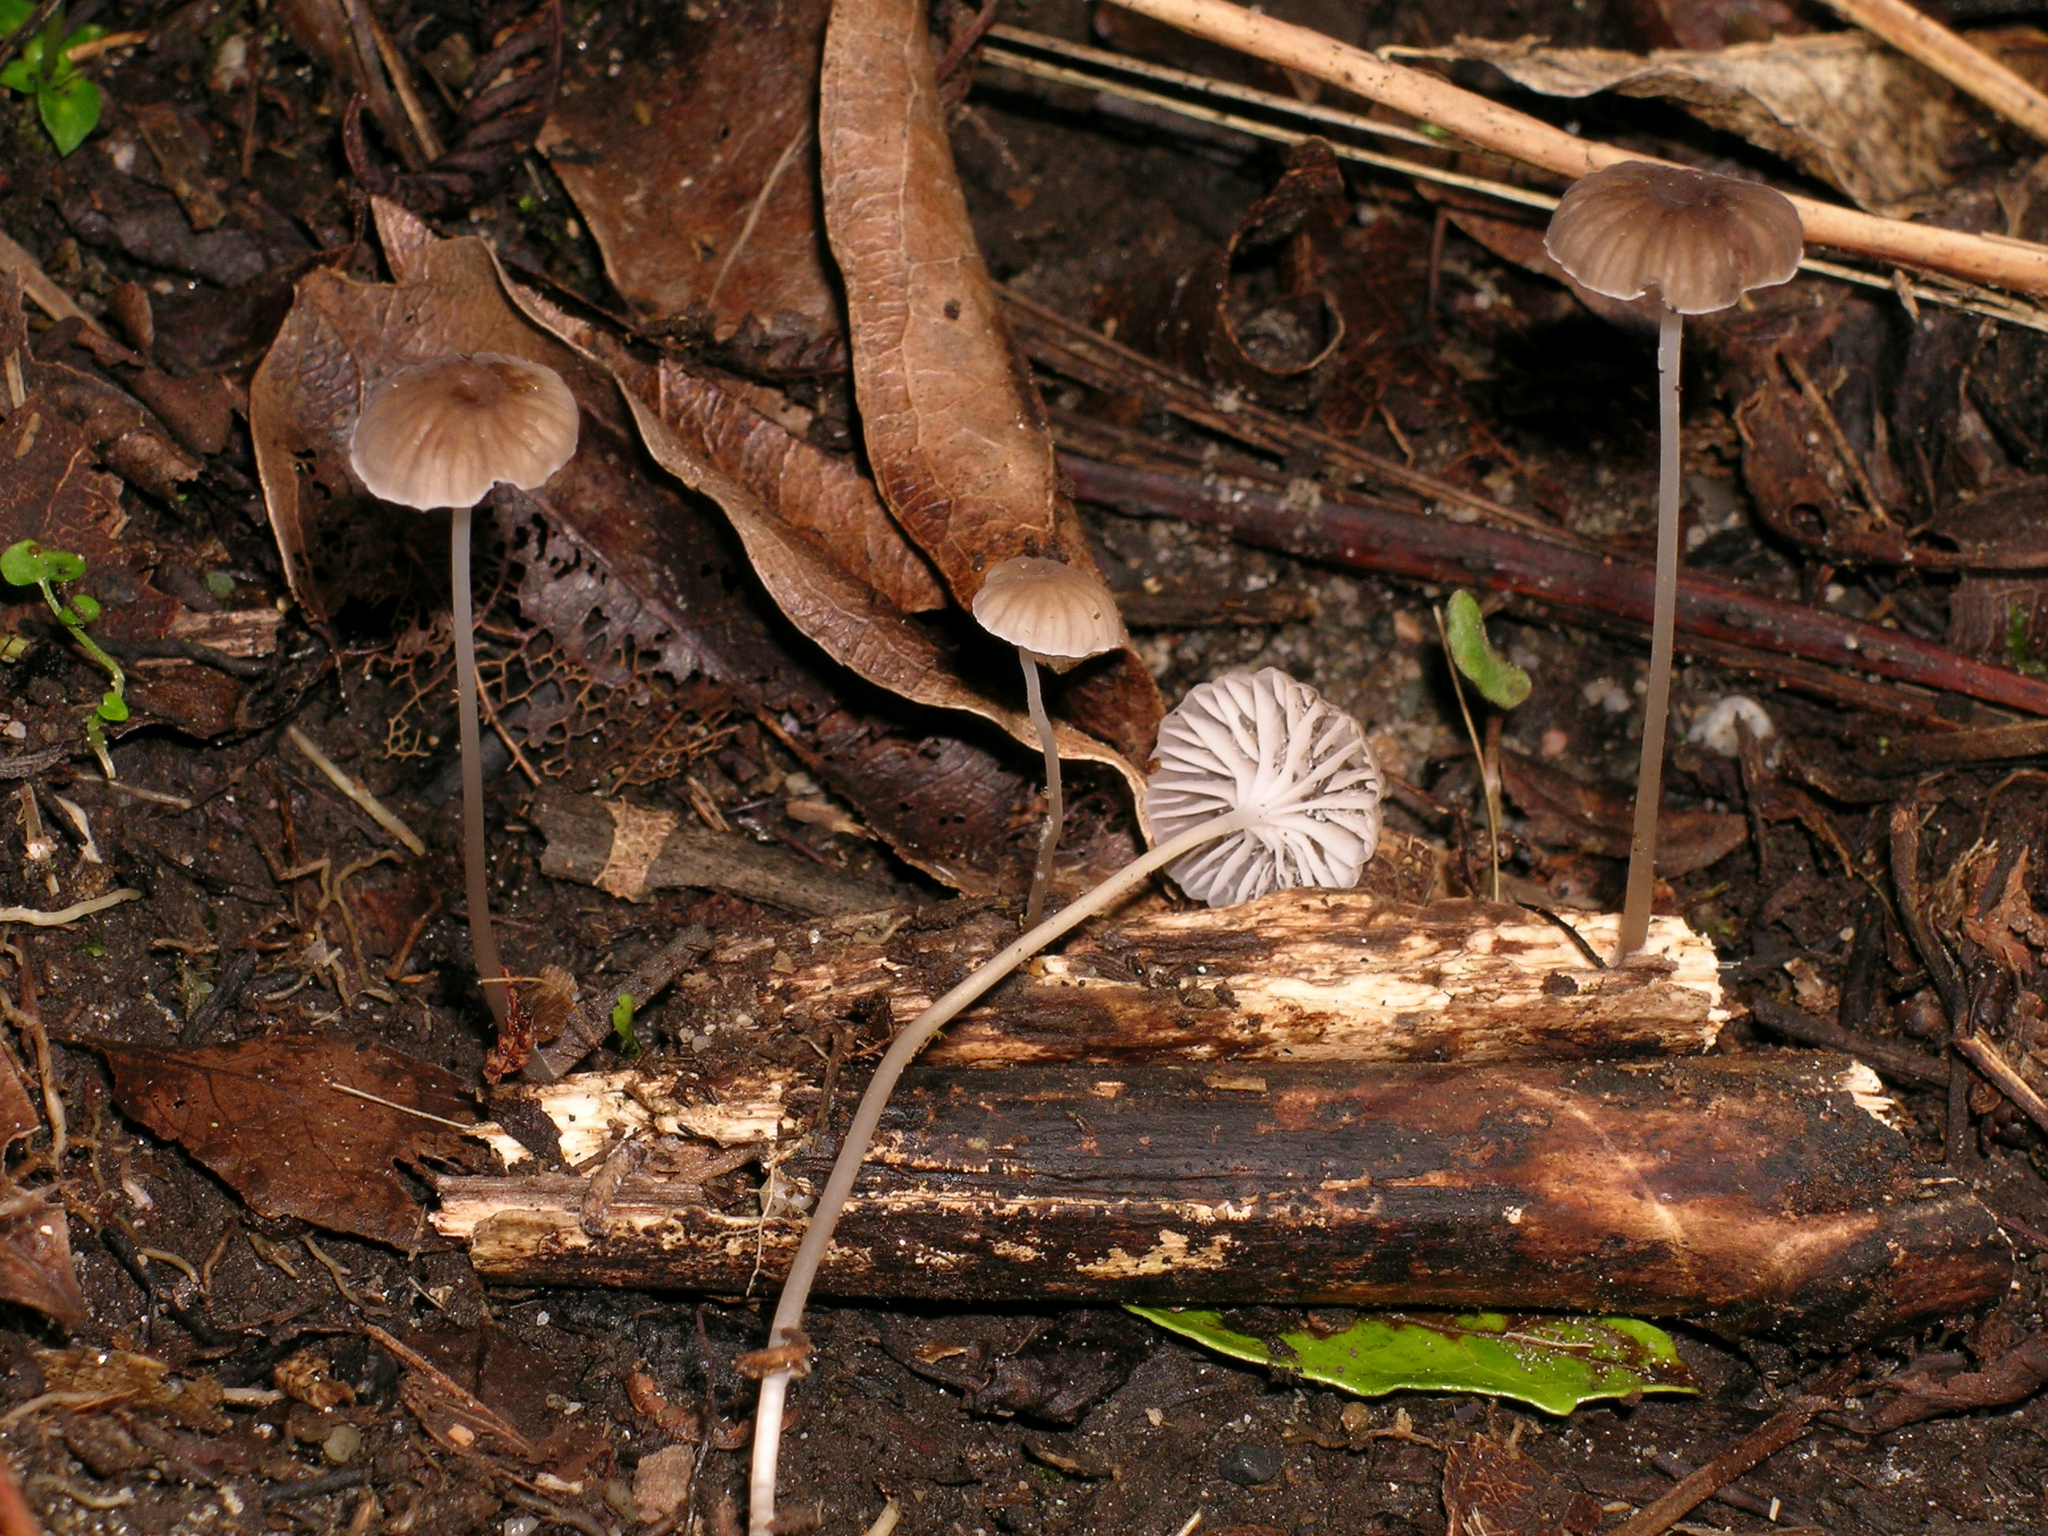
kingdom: Fungi
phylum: Basidiomycota
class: Agaricomycetes
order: Agaricales
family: Mycenaceae
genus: Mycena
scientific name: Mycena helminthobasis
